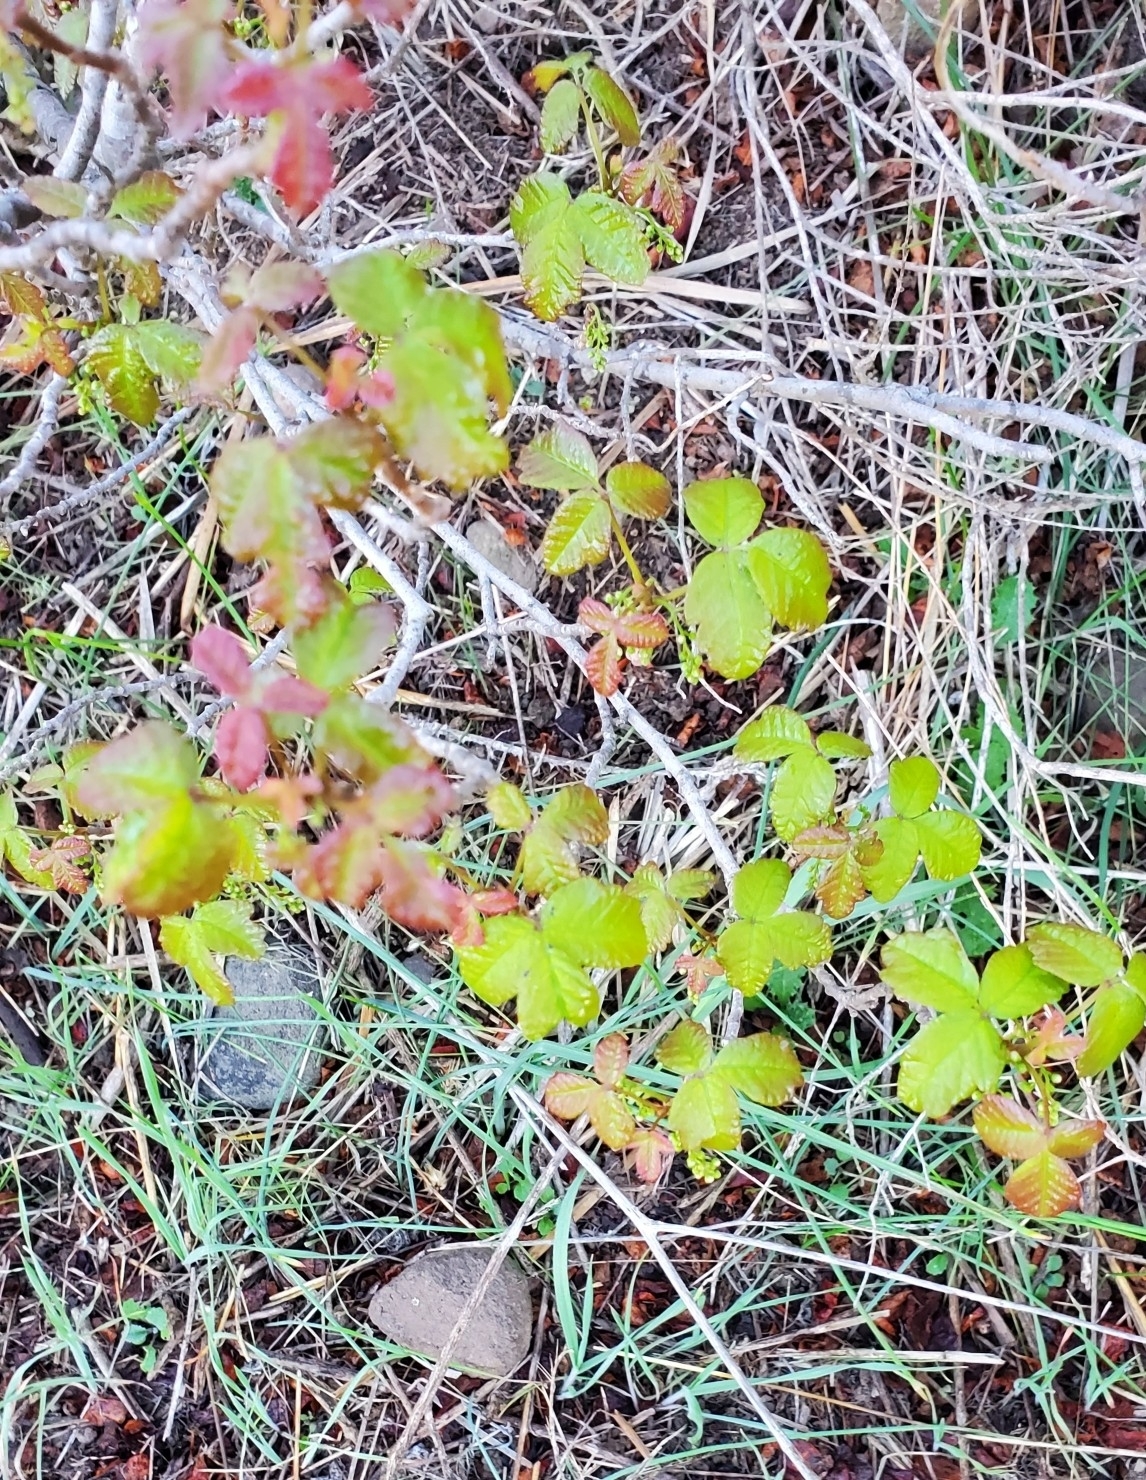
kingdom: Plantae
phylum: Tracheophyta
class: Magnoliopsida
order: Sapindales
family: Anacardiaceae
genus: Toxicodendron
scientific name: Toxicodendron diversilobum
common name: Pacific poison-oak
